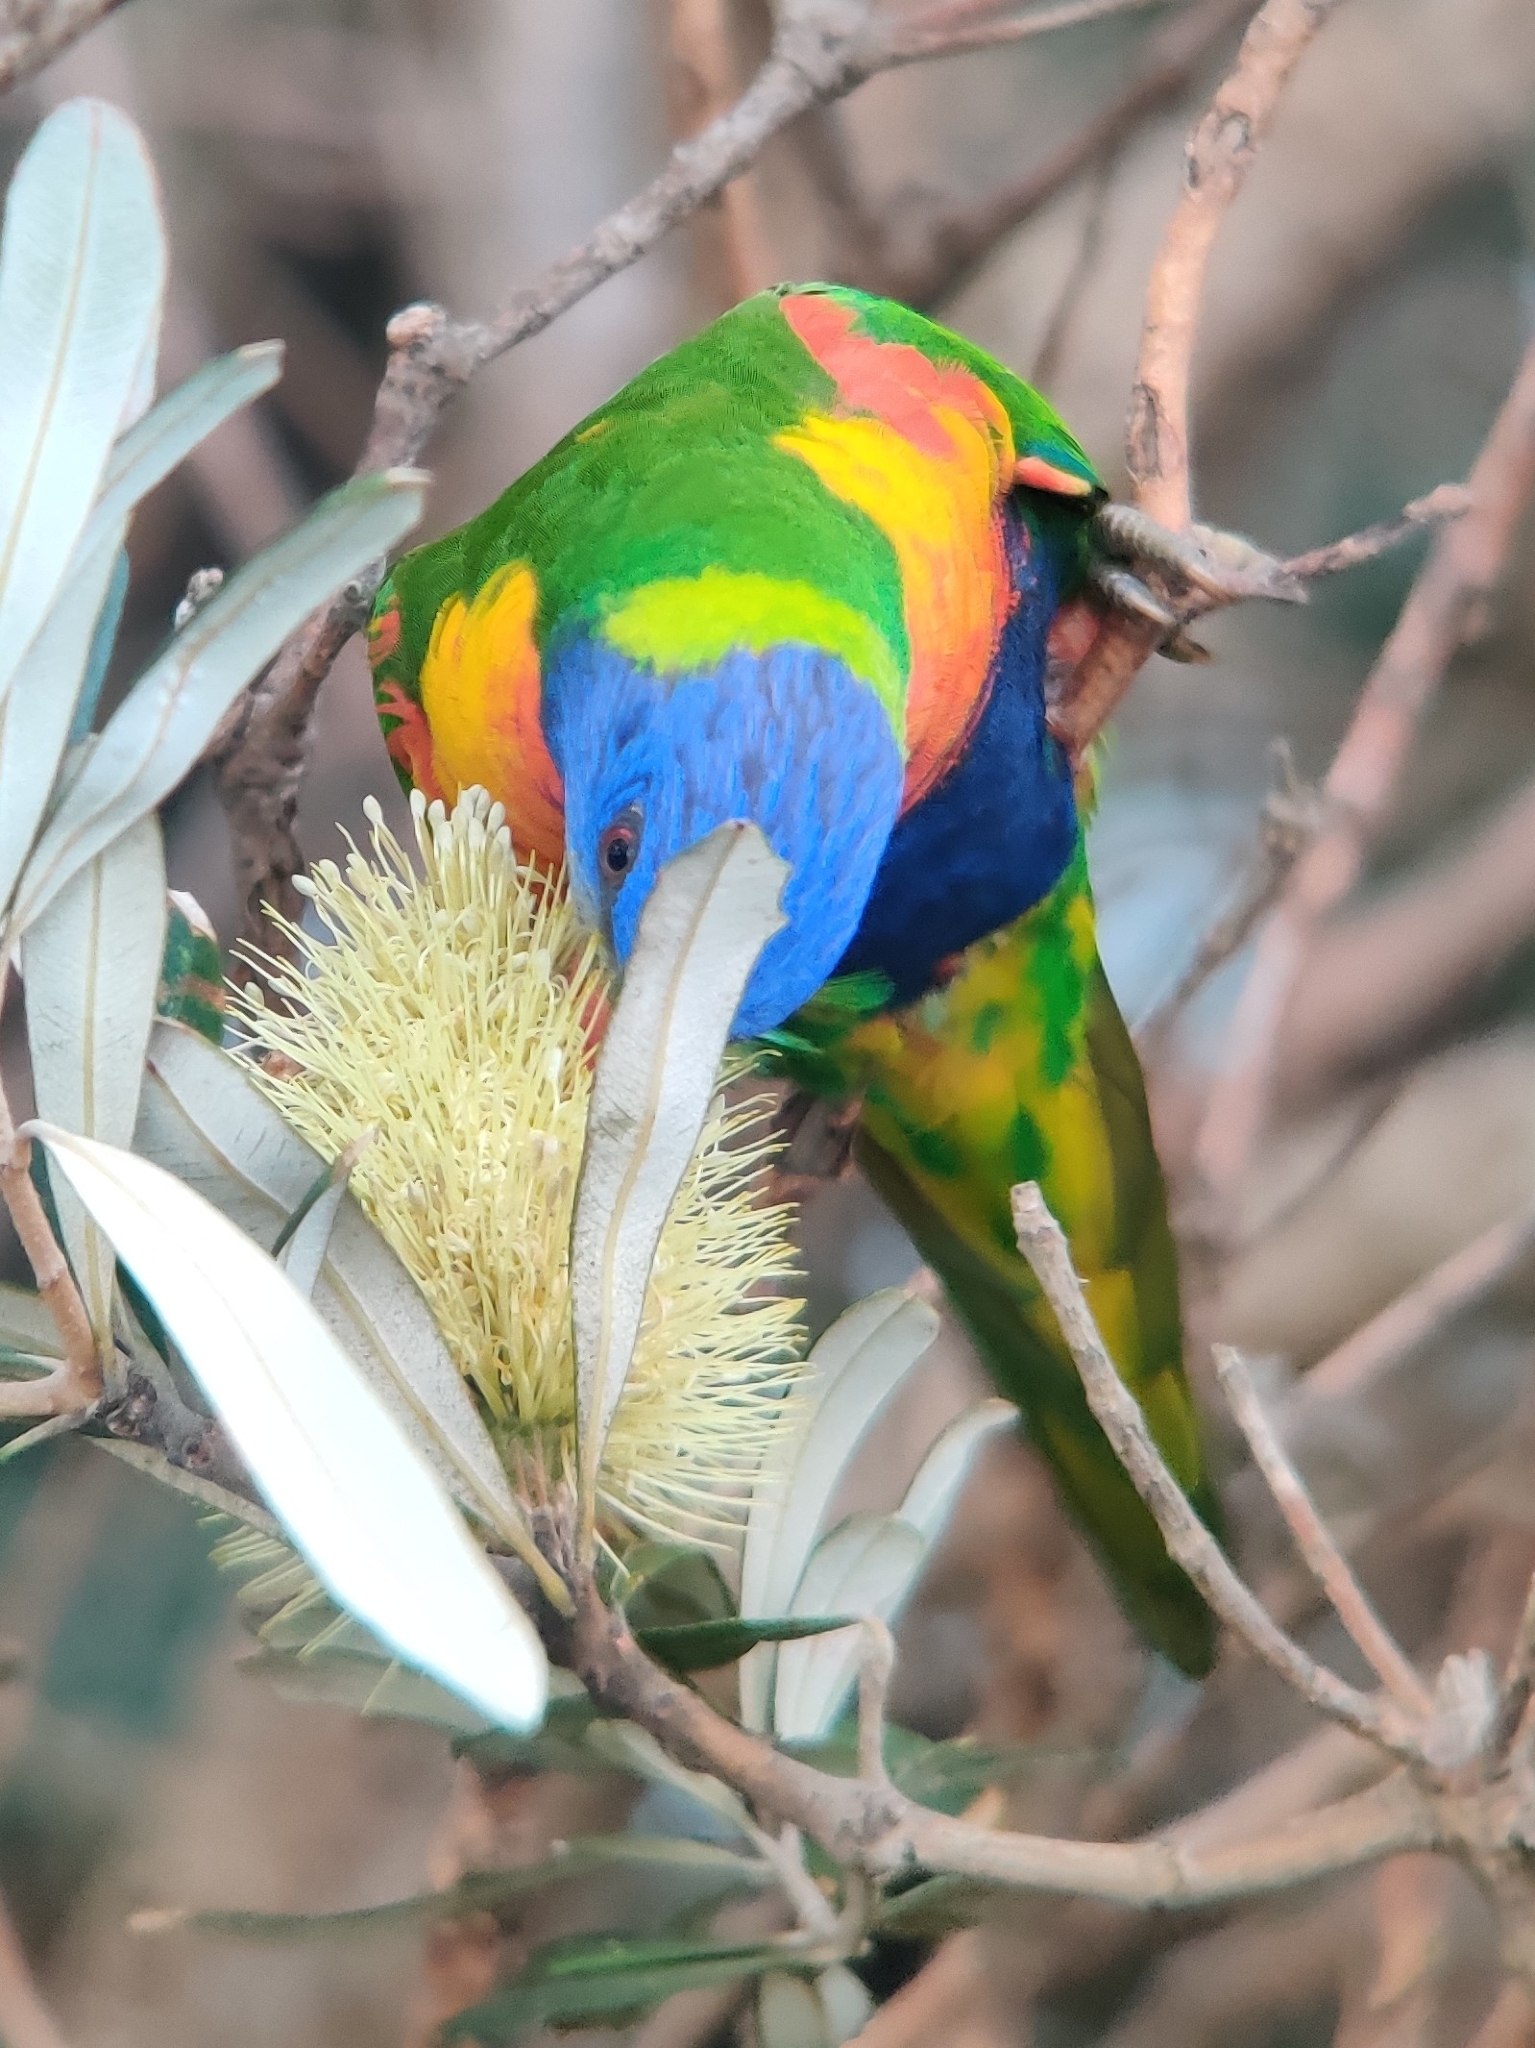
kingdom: Animalia
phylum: Chordata
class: Aves
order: Psittaciformes
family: Psittacidae
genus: Trichoglossus
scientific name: Trichoglossus haematodus
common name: Coconut lorikeet
